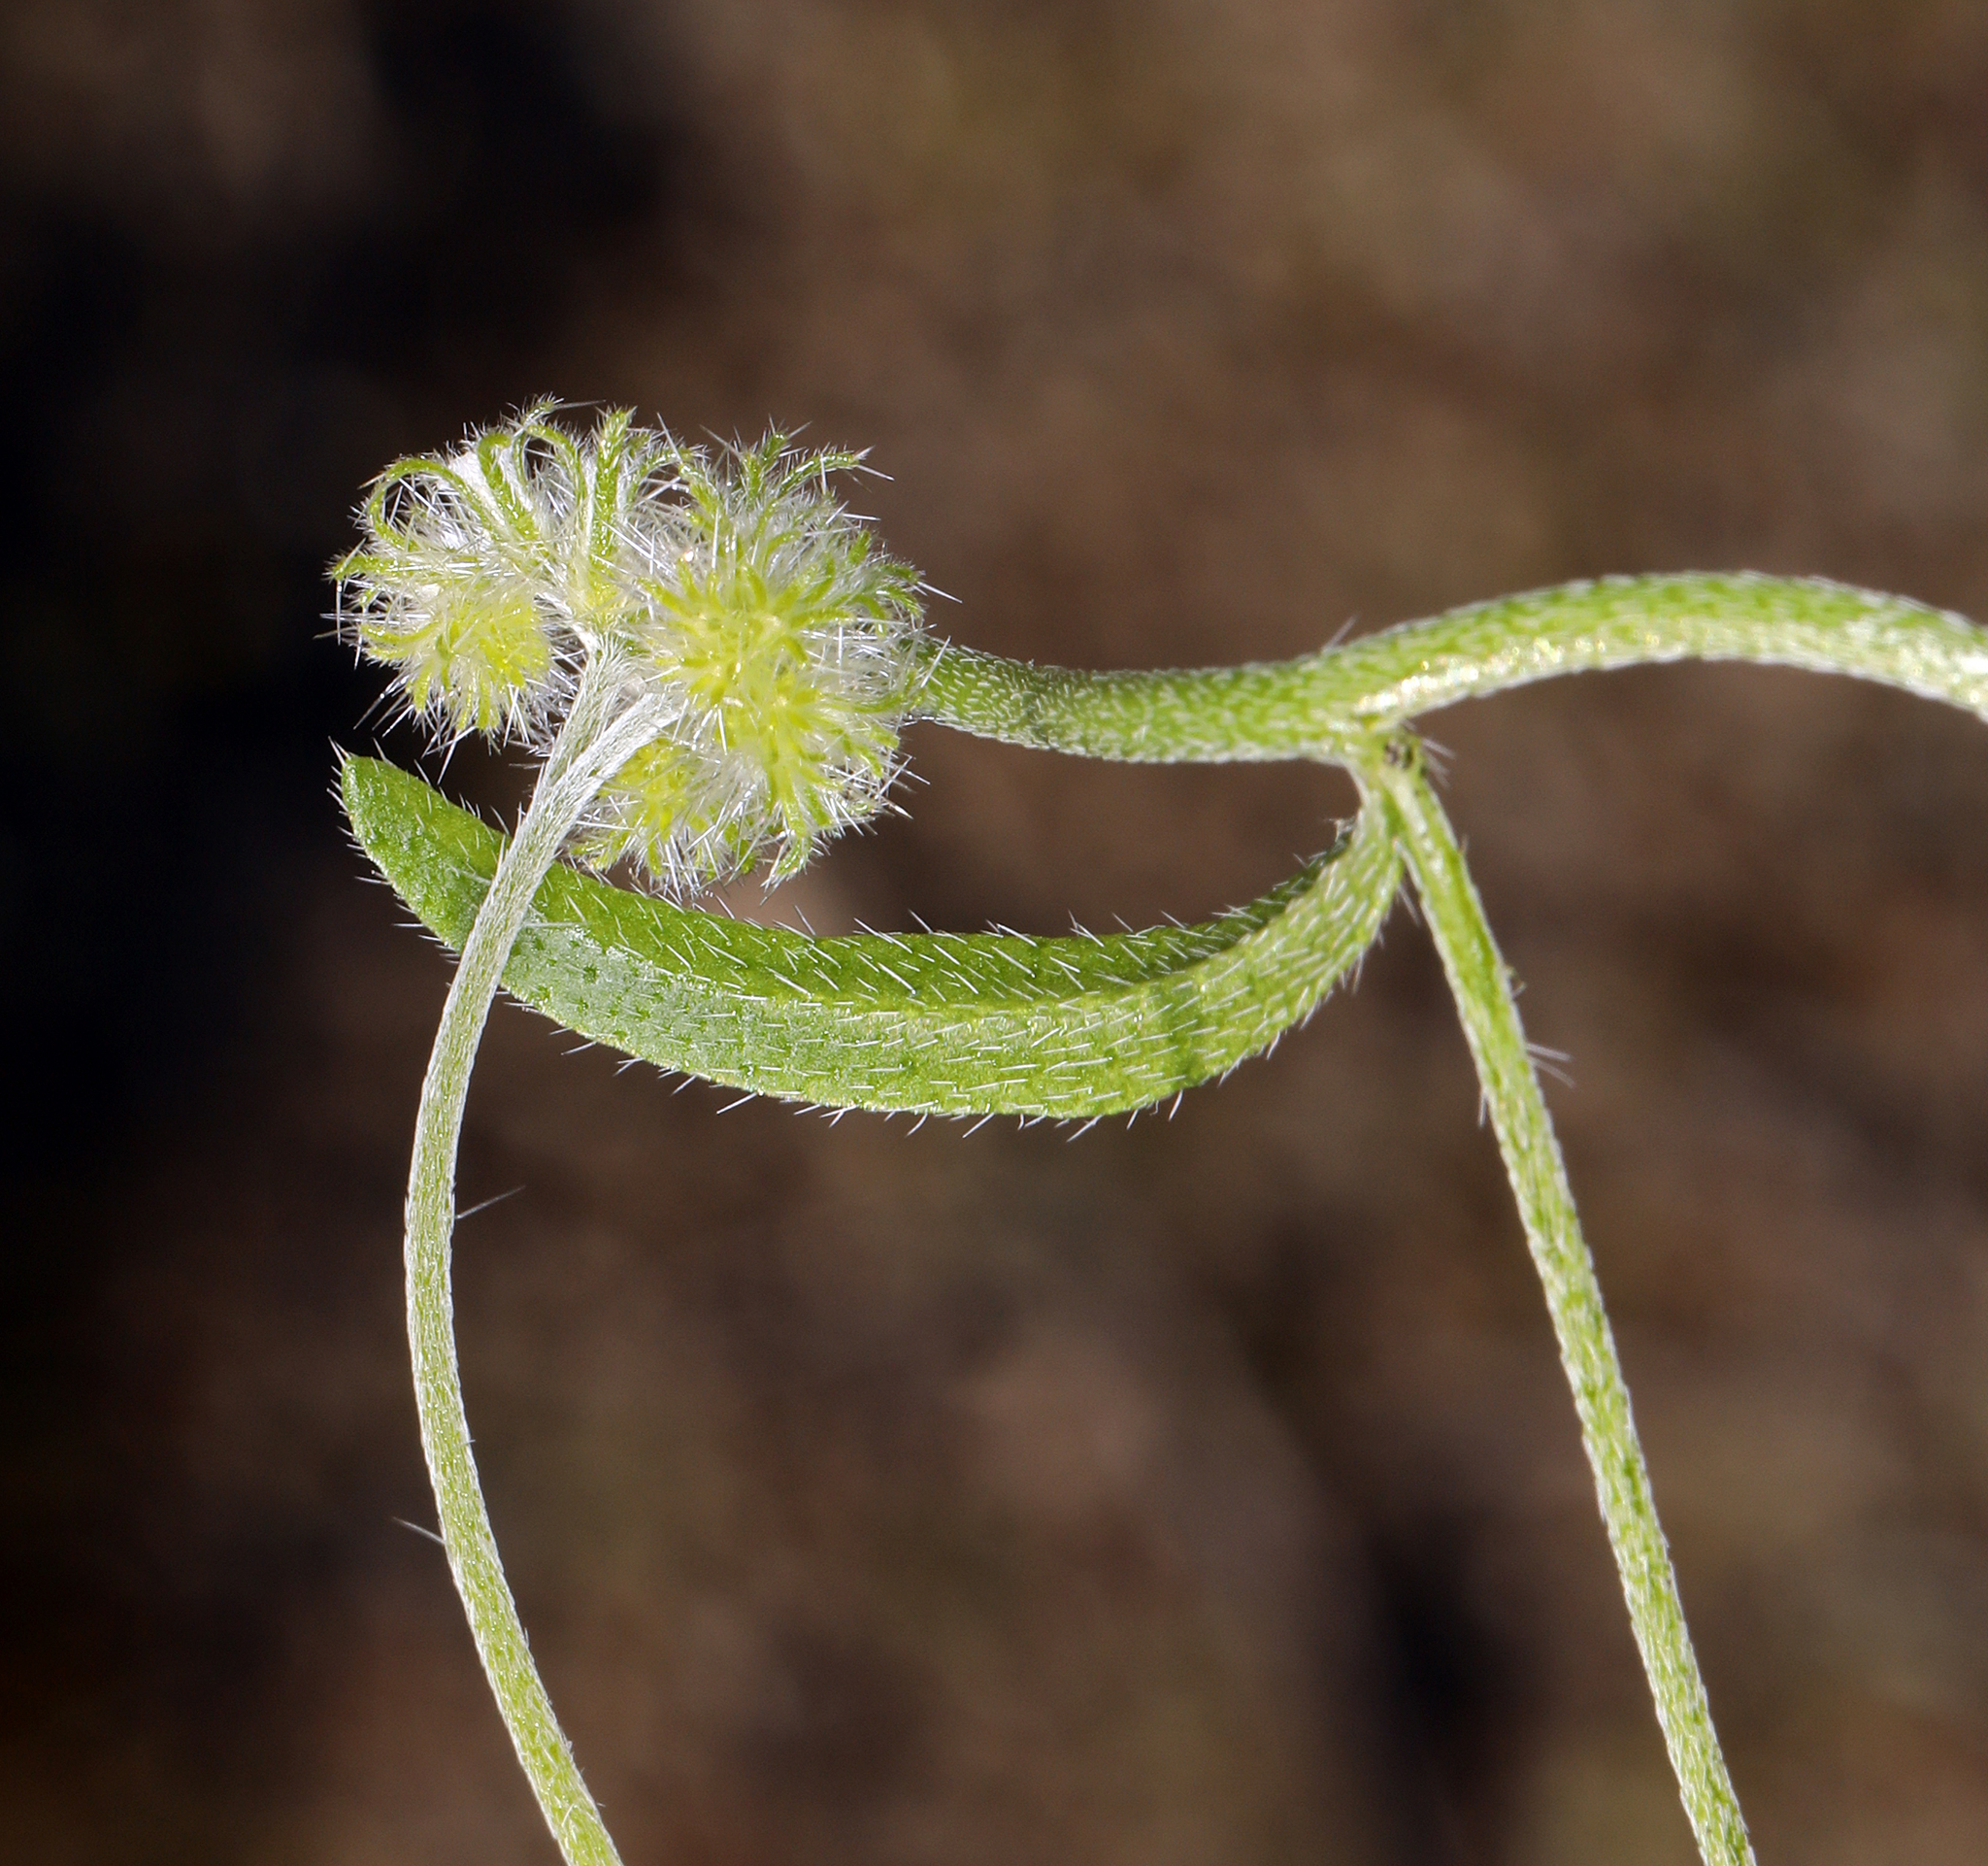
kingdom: Plantae
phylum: Tracheophyta
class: Magnoliopsida
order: Boraginales
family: Boraginaceae
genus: Cryptantha
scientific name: Cryptantha nevadensis
